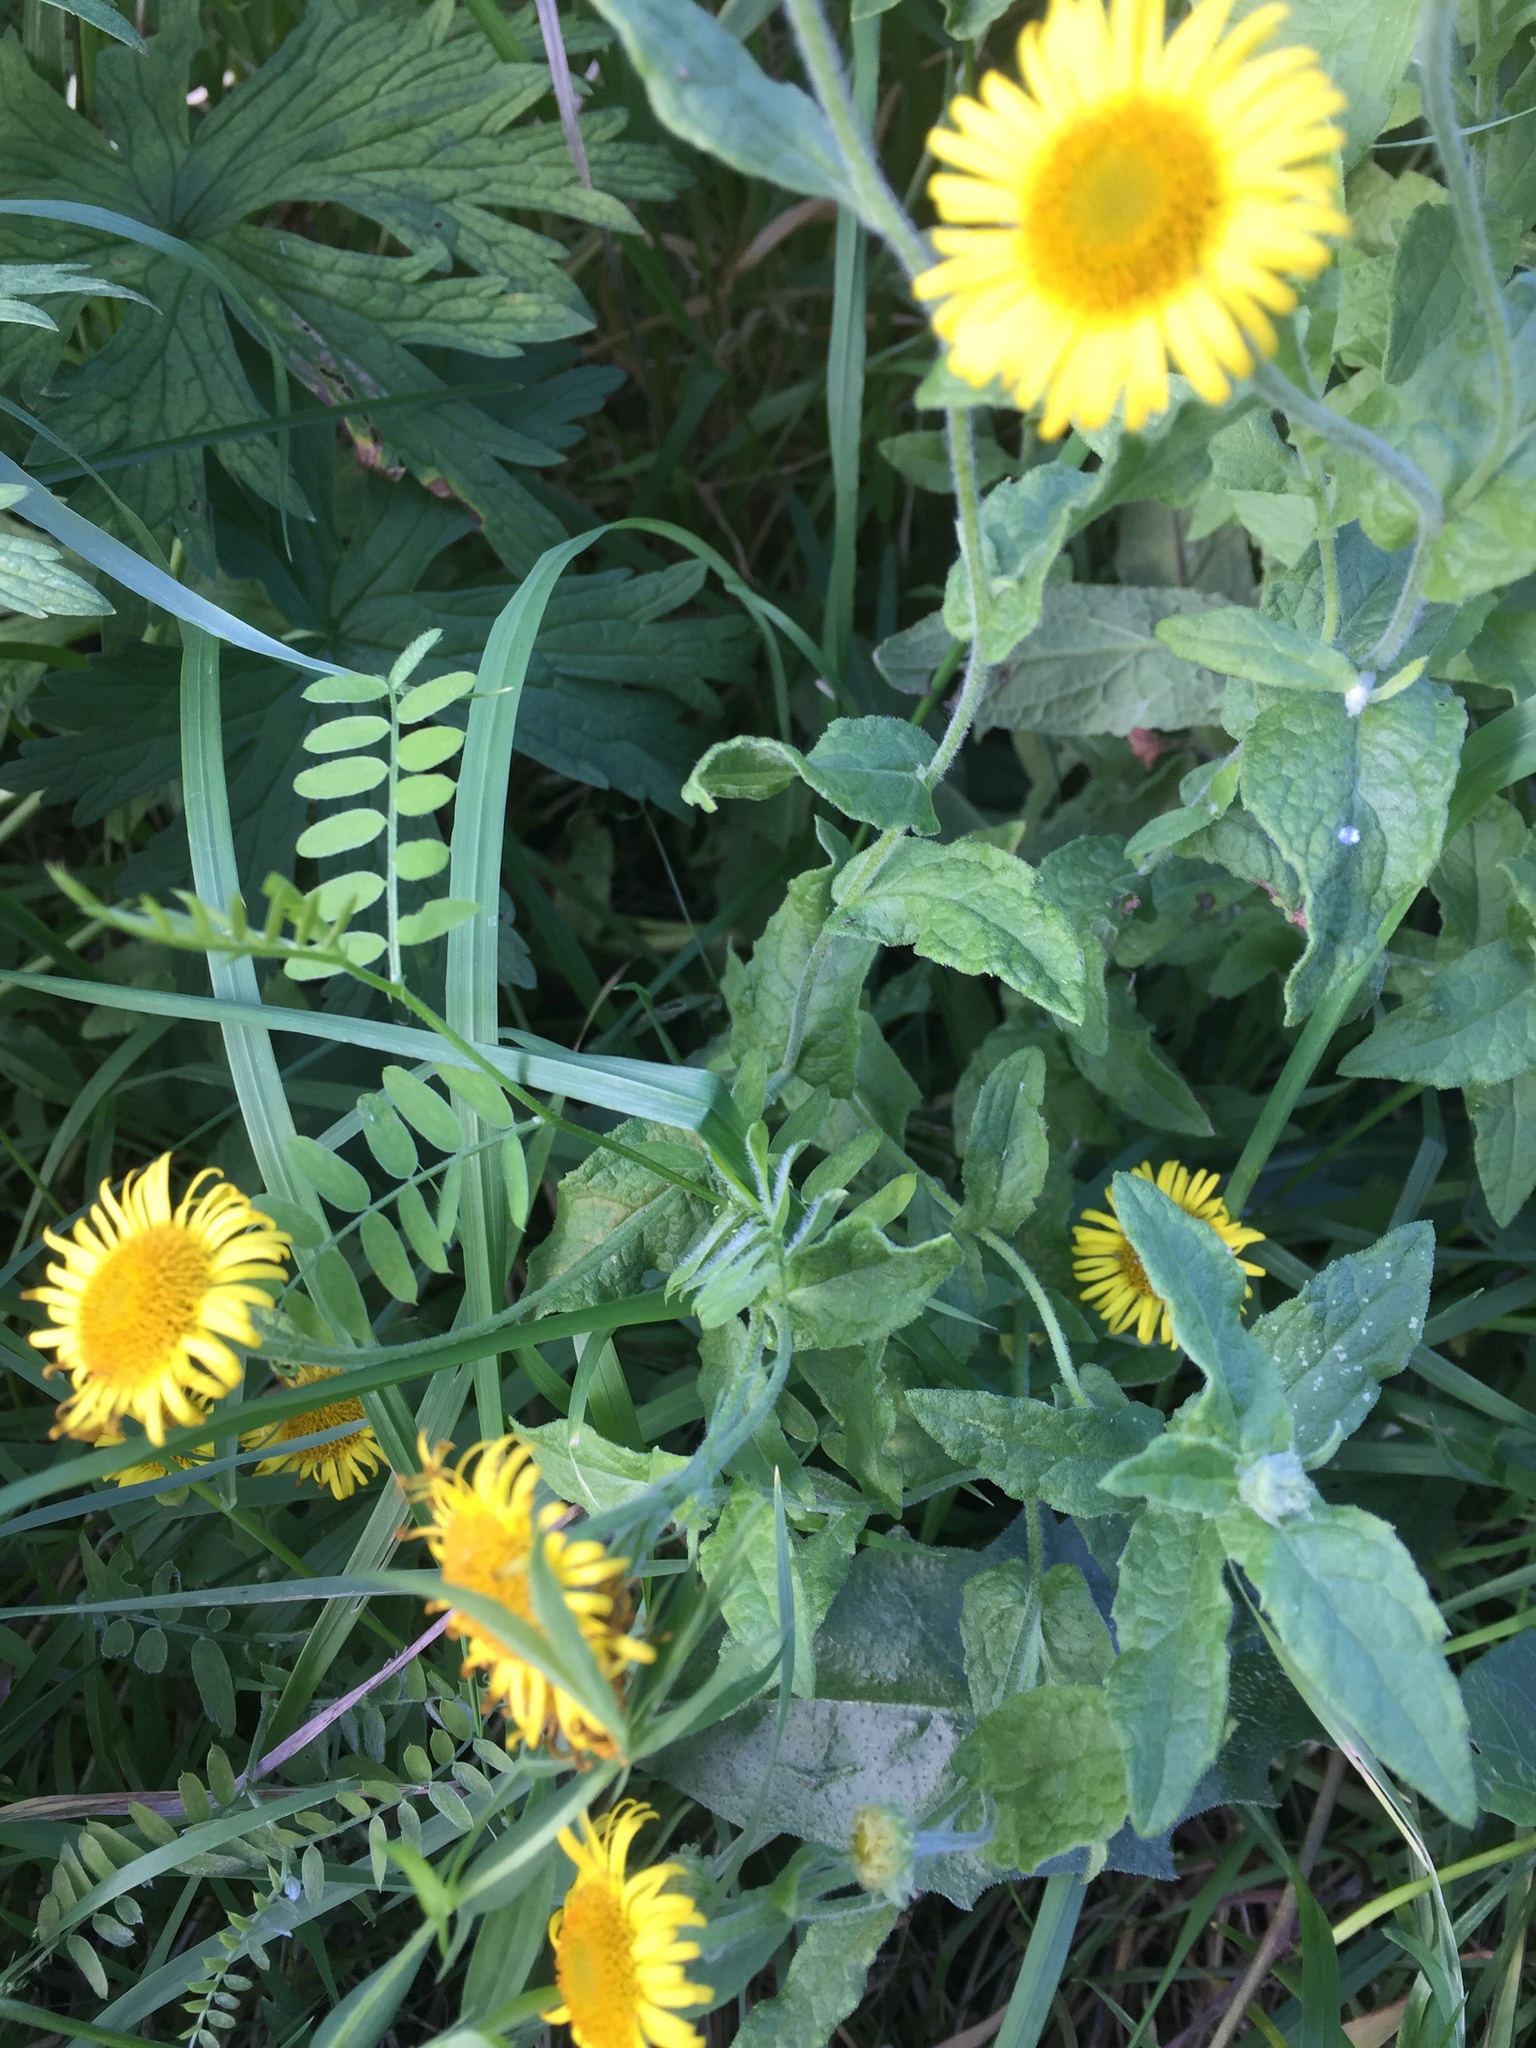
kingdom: Plantae
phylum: Tracheophyta
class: Magnoliopsida
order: Asterales
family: Asteraceae
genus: Pulicaria
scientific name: Pulicaria dysenterica
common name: Common fleabane
